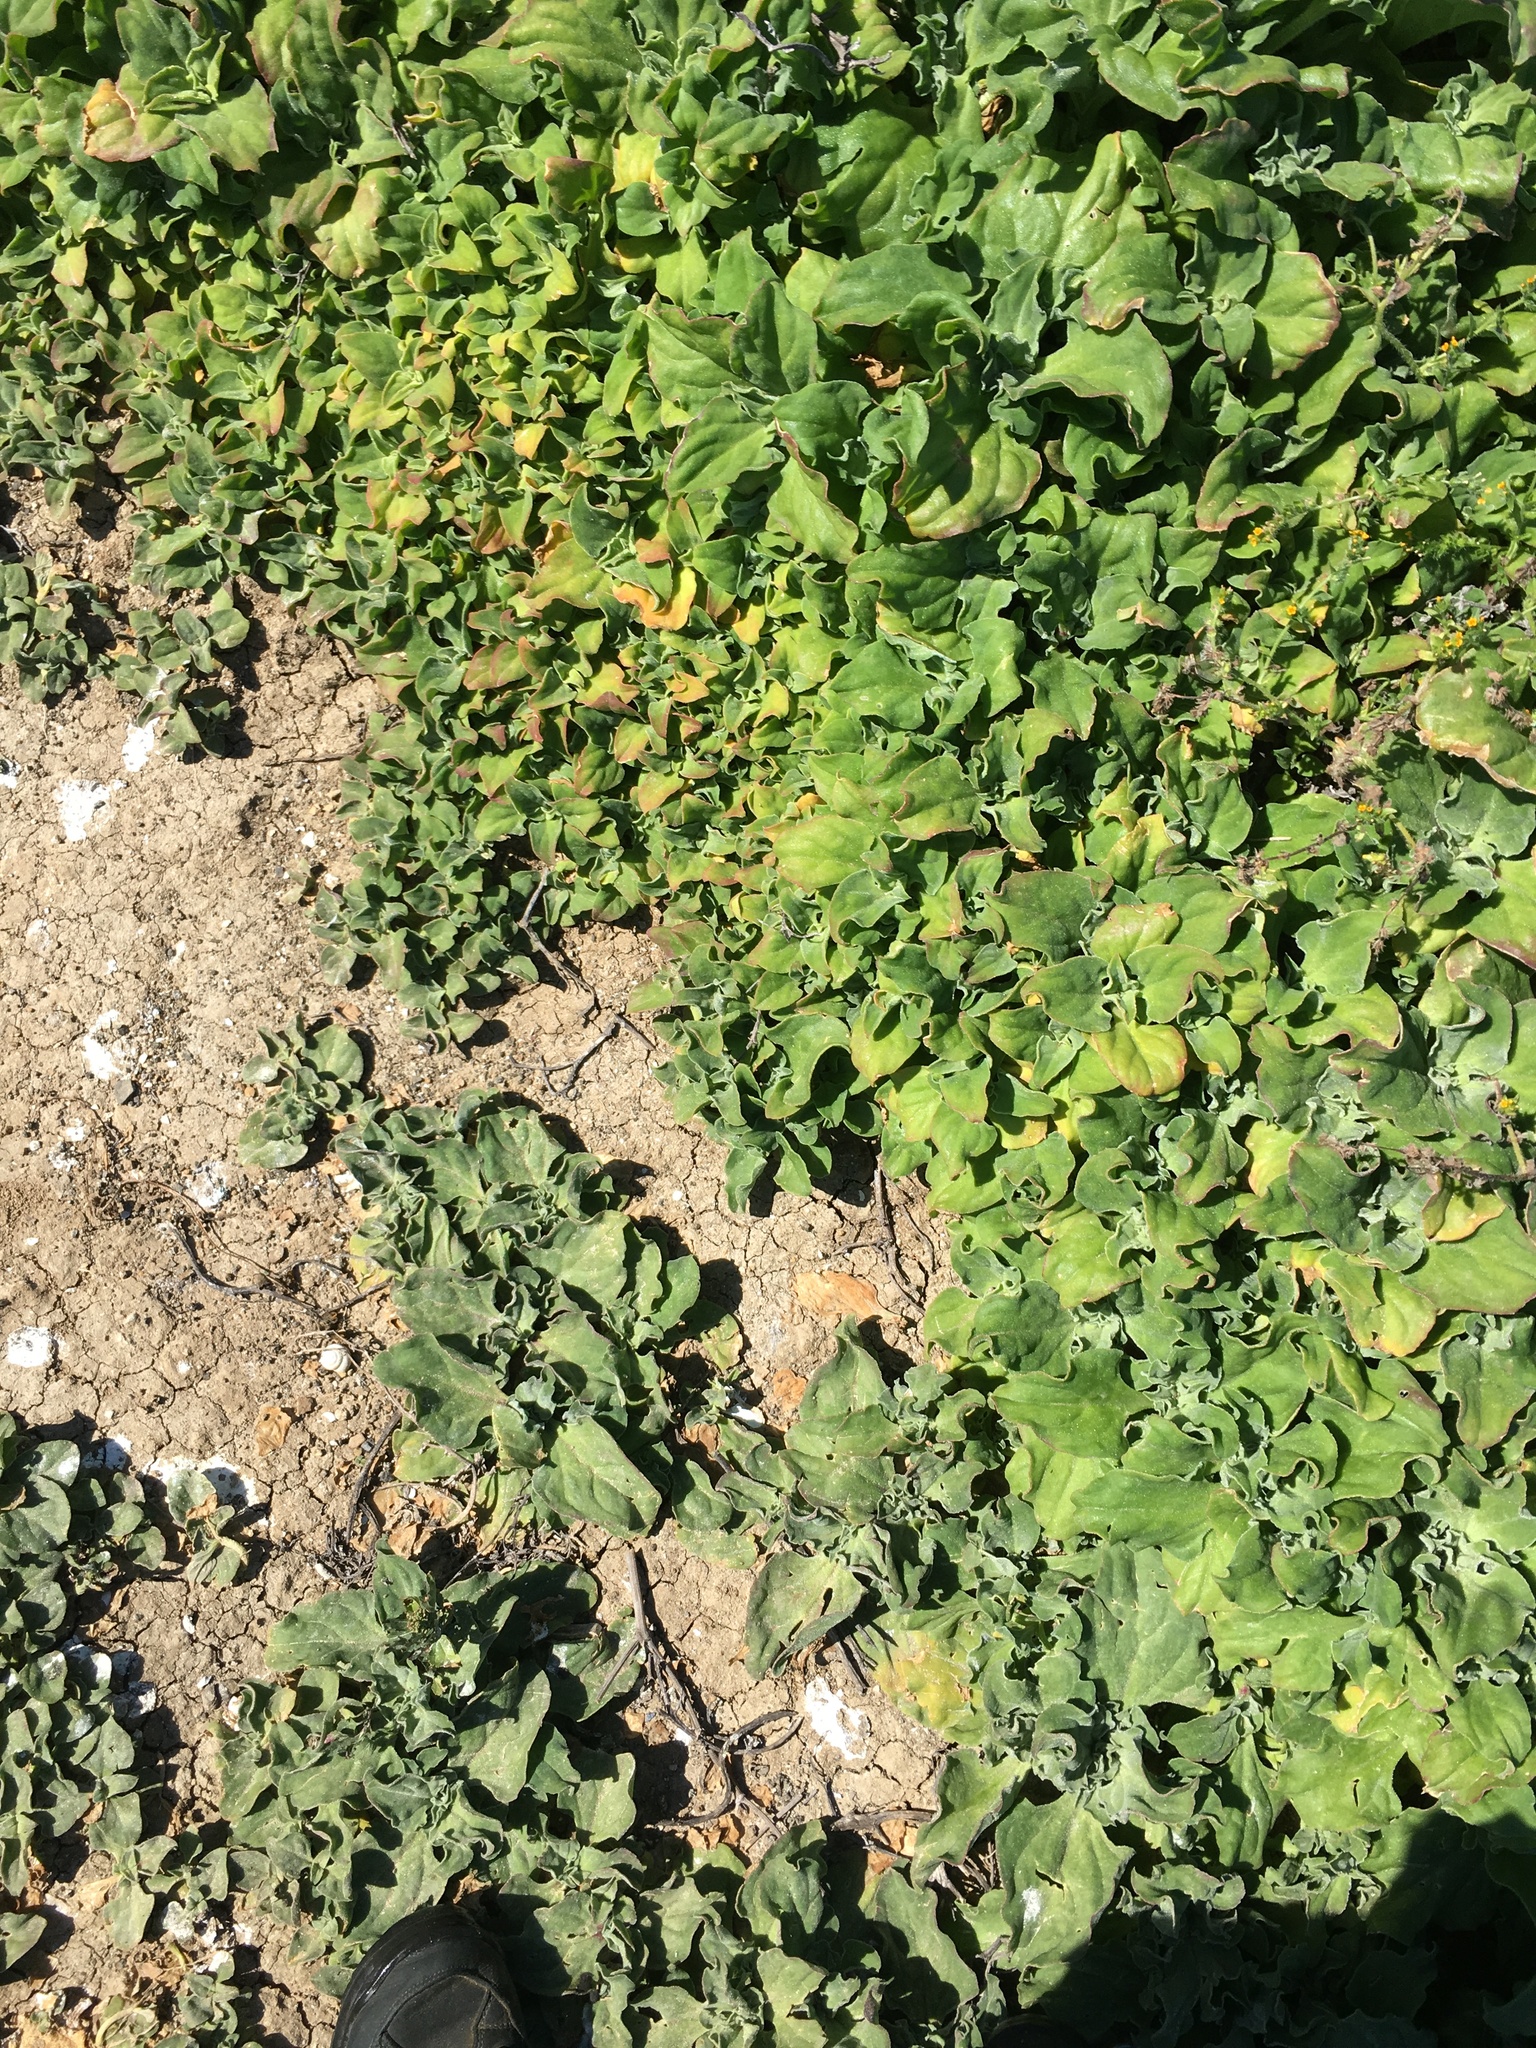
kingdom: Plantae
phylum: Tracheophyta
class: Magnoliopsida
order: Caryophyllales
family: Aizoaceae
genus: Mesembryanthemum
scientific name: Mesembryanthemum crystallinum
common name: Common iceplant
